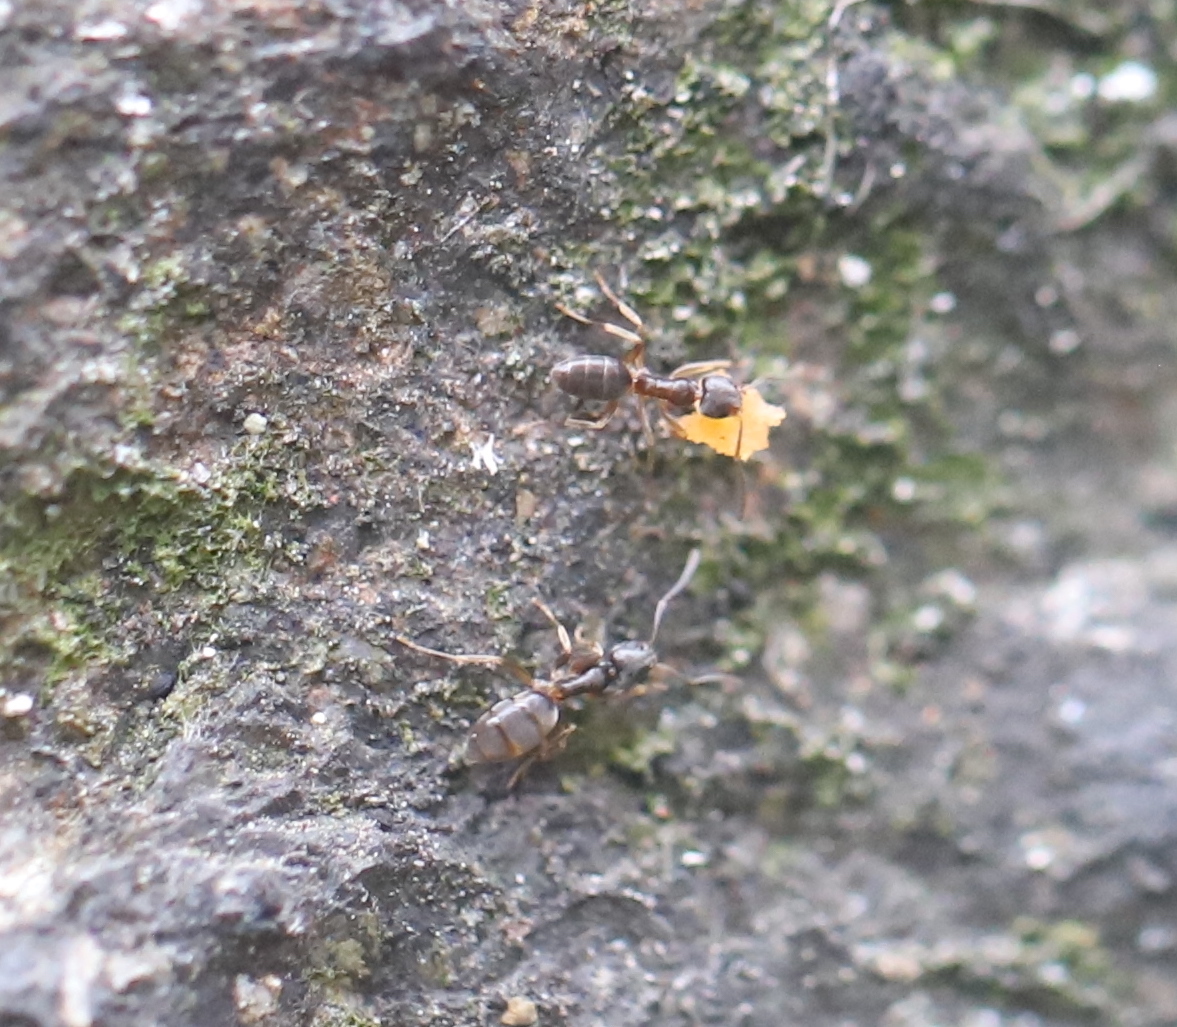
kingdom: Animalia
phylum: Arthropoda
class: Insecta
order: Hymenoptera
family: Formicidae
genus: Tapinoma
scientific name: Tapinoma sessile
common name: Odorous house ant
